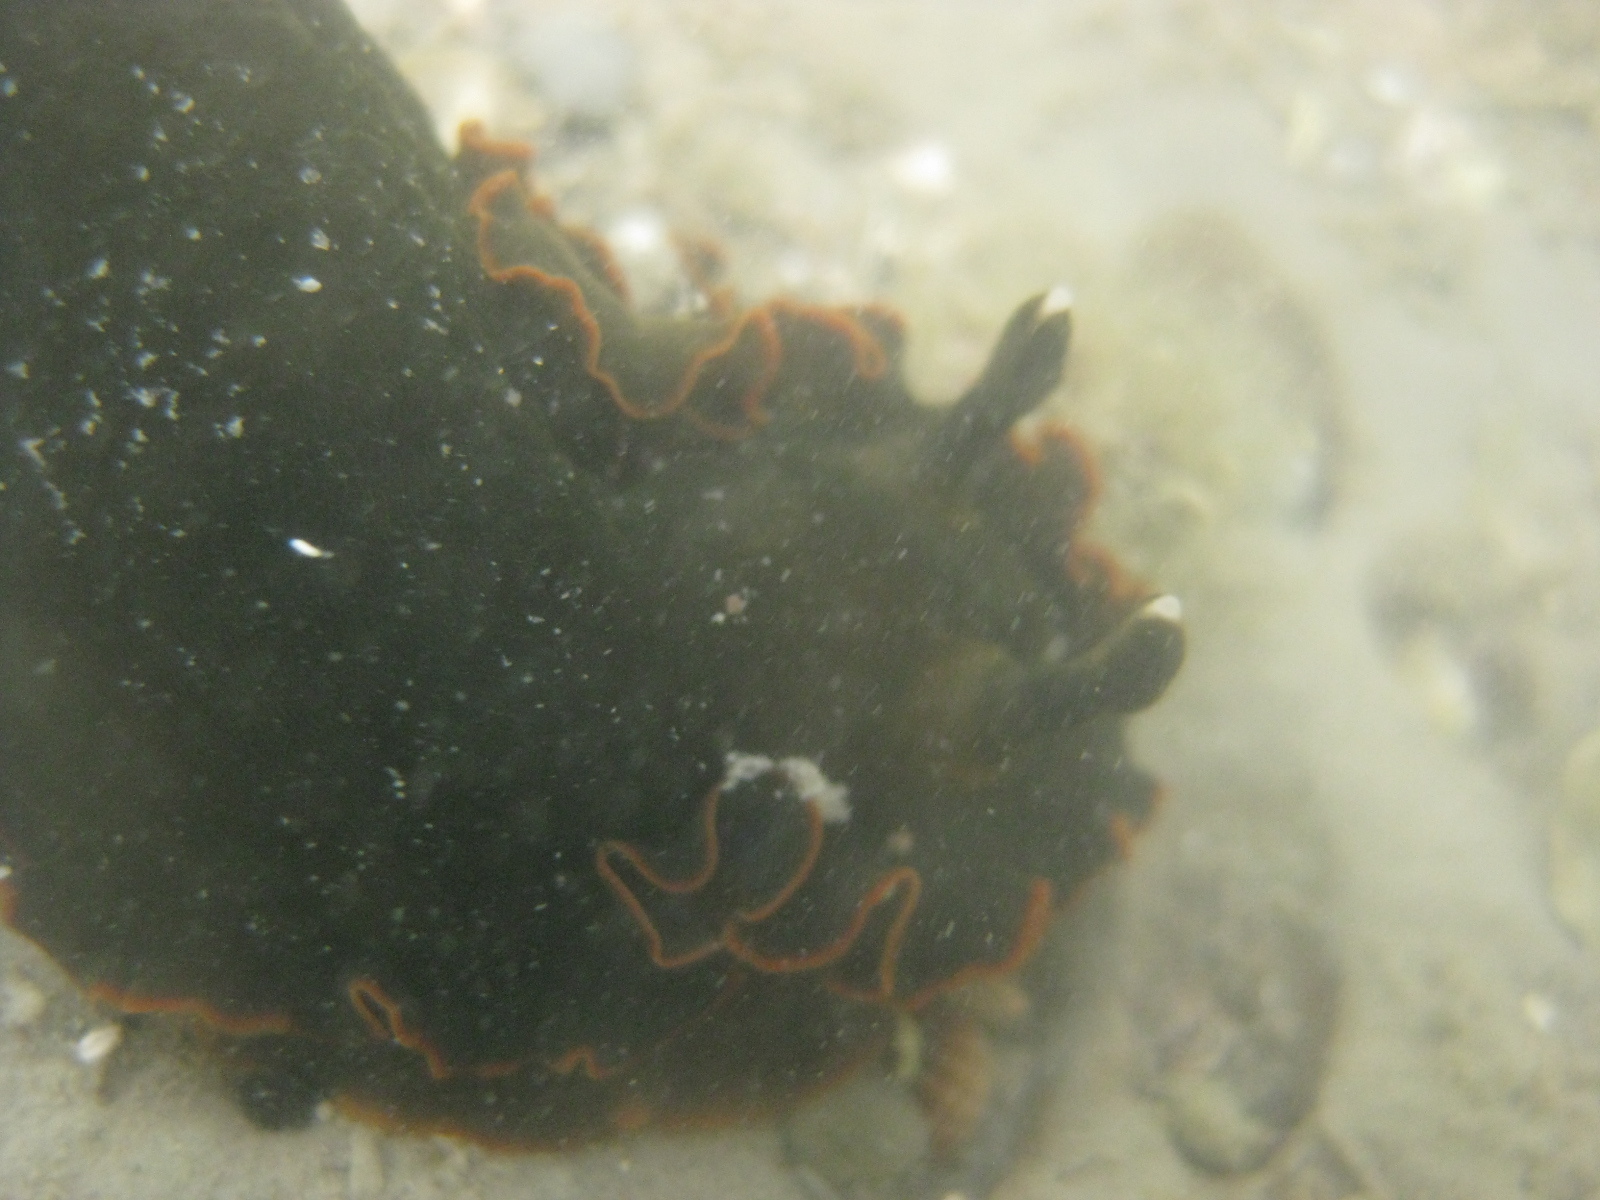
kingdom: Animalia
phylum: Mollusca
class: Gastropoda
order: Nudibranchia
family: Dendrodorididae
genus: Dendrodoris
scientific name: Dendrodoris arborescens
